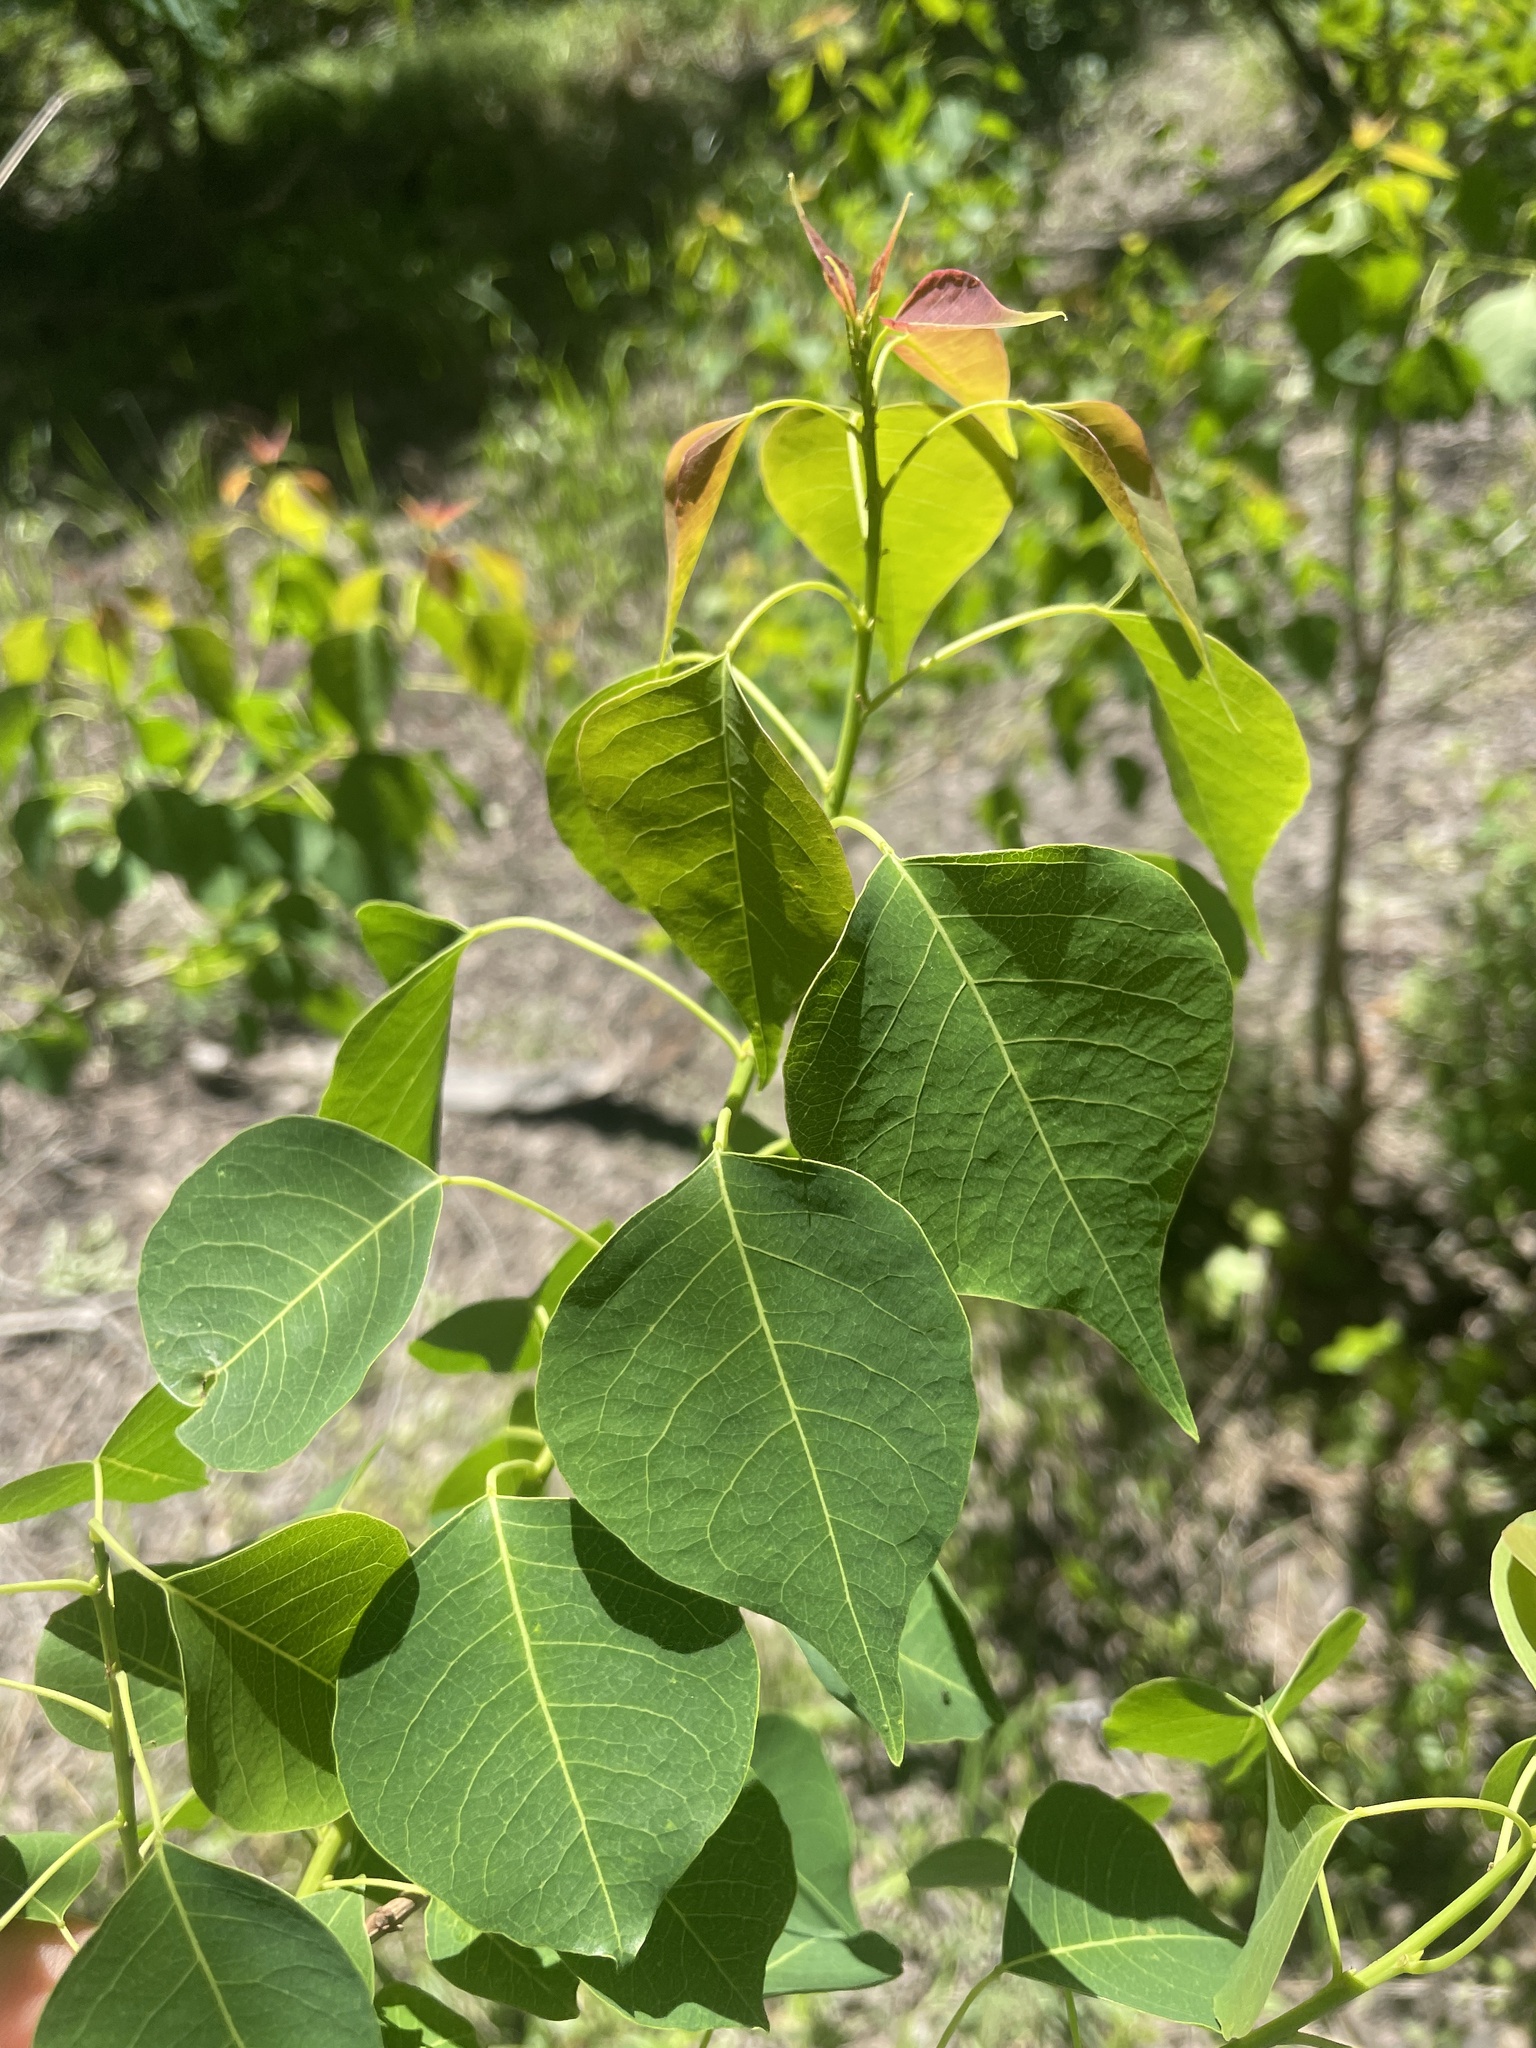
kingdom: Plantae
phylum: Tracheophyta
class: Magnoliopsida
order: Malpighiales
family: Euphorbiaceae
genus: Triadica
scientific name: Triadica sebifera
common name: Chinese tallow
